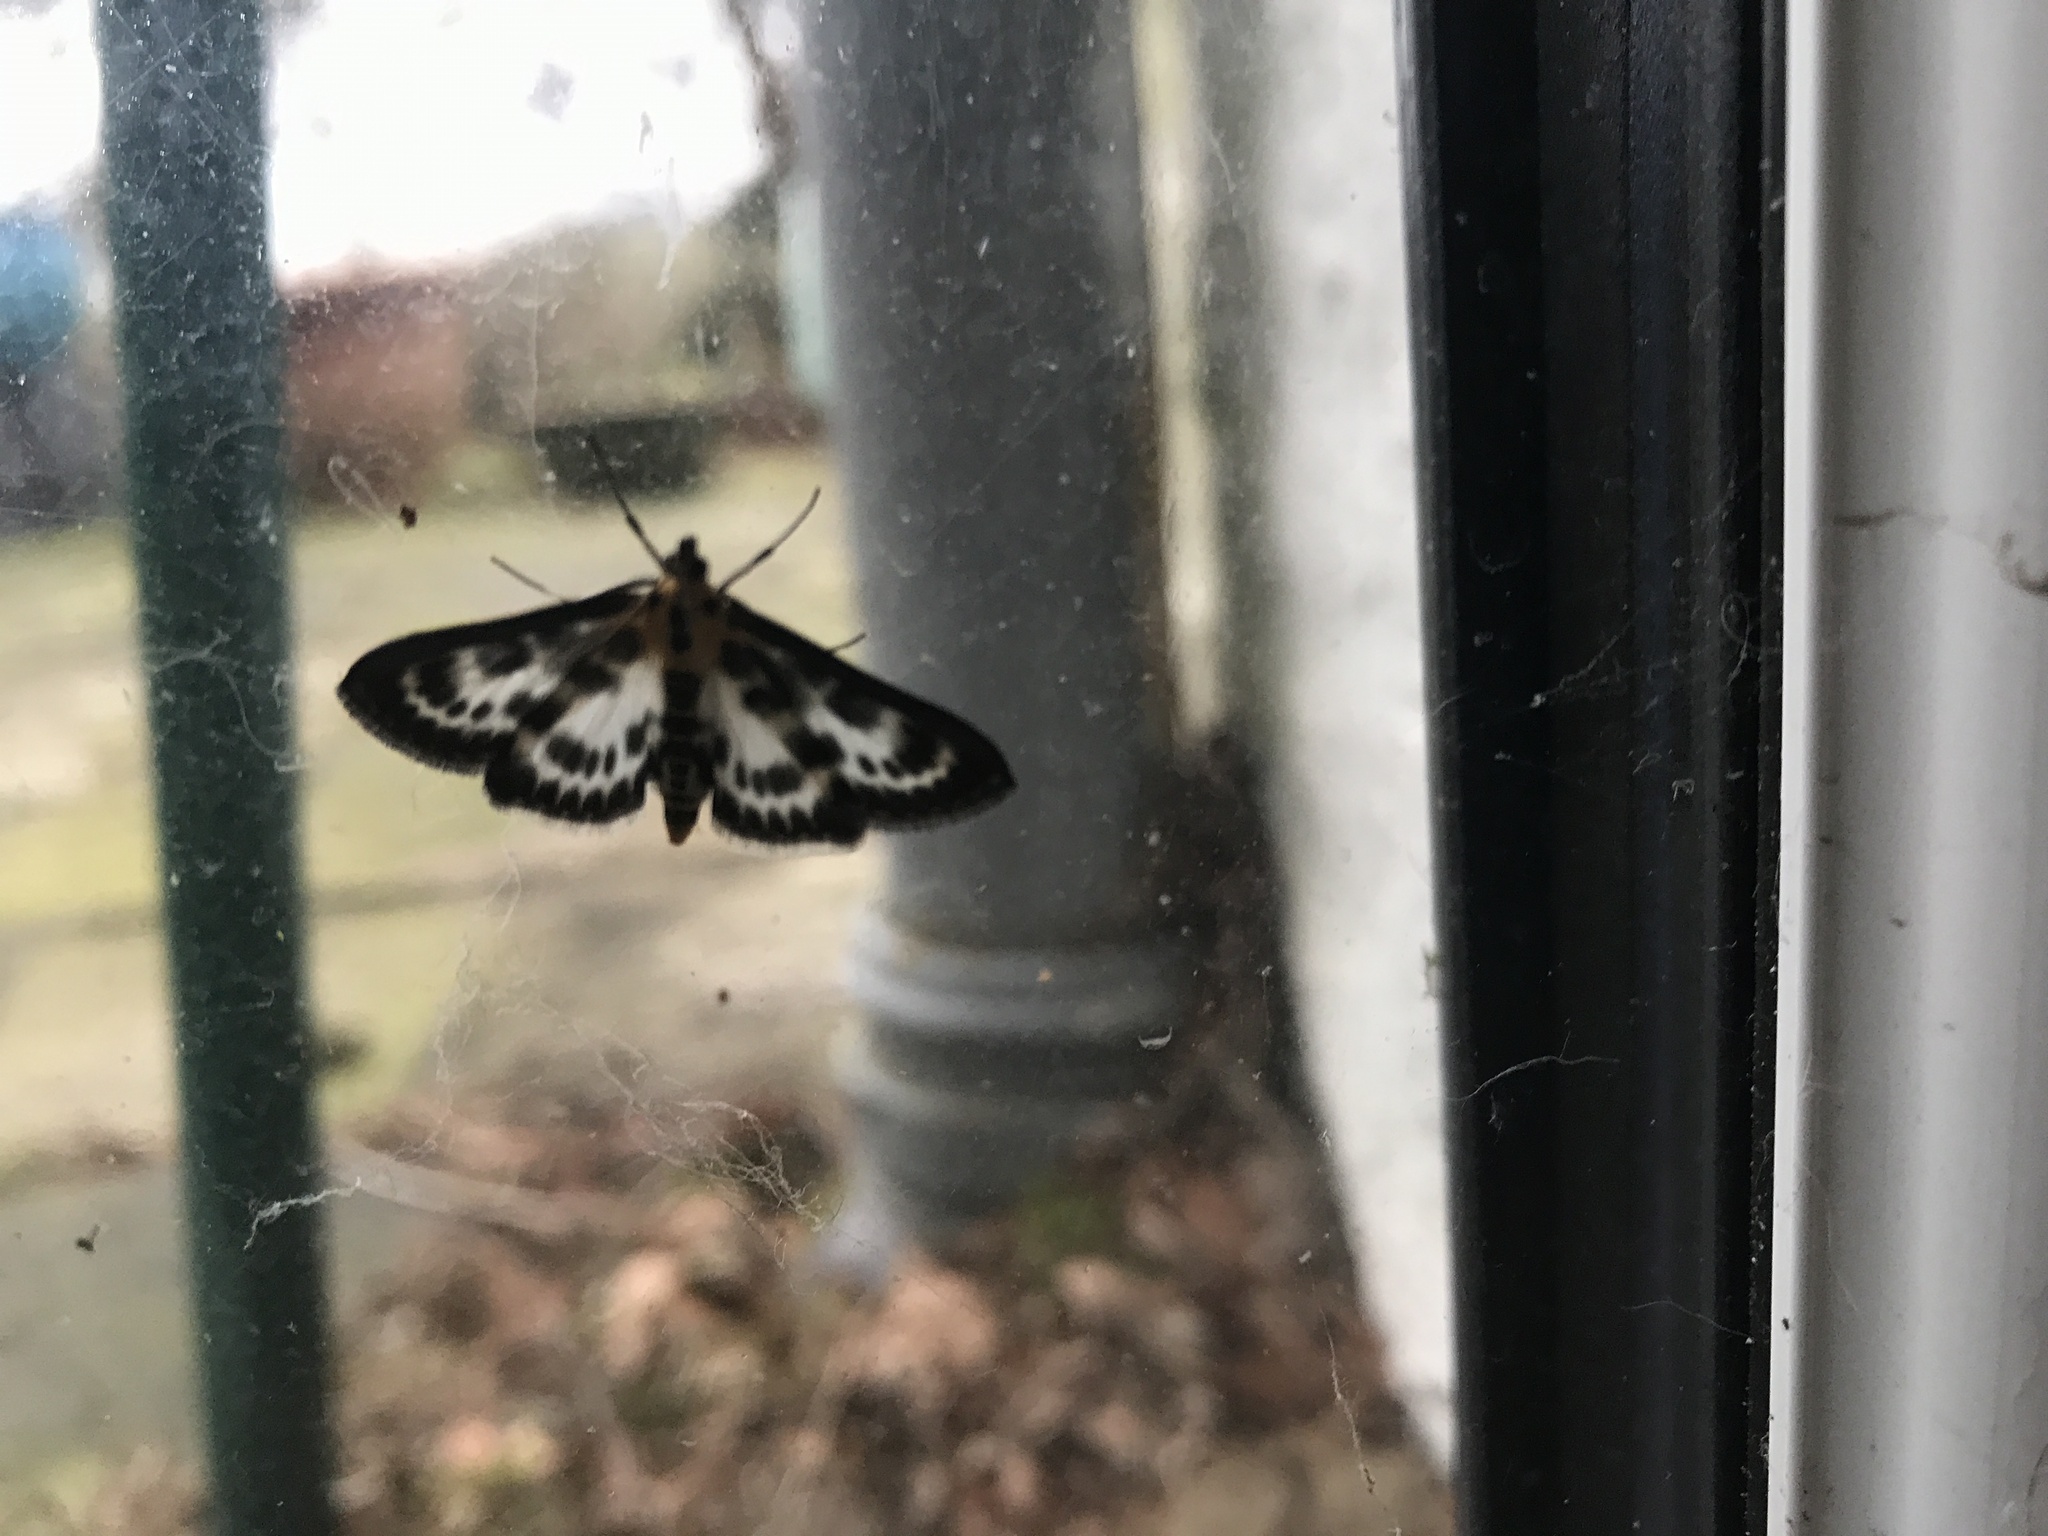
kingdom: Animalia
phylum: Arthropoda
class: Insecta
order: Lepidoptera
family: Crambidae
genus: Anania
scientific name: Anania hortulata
